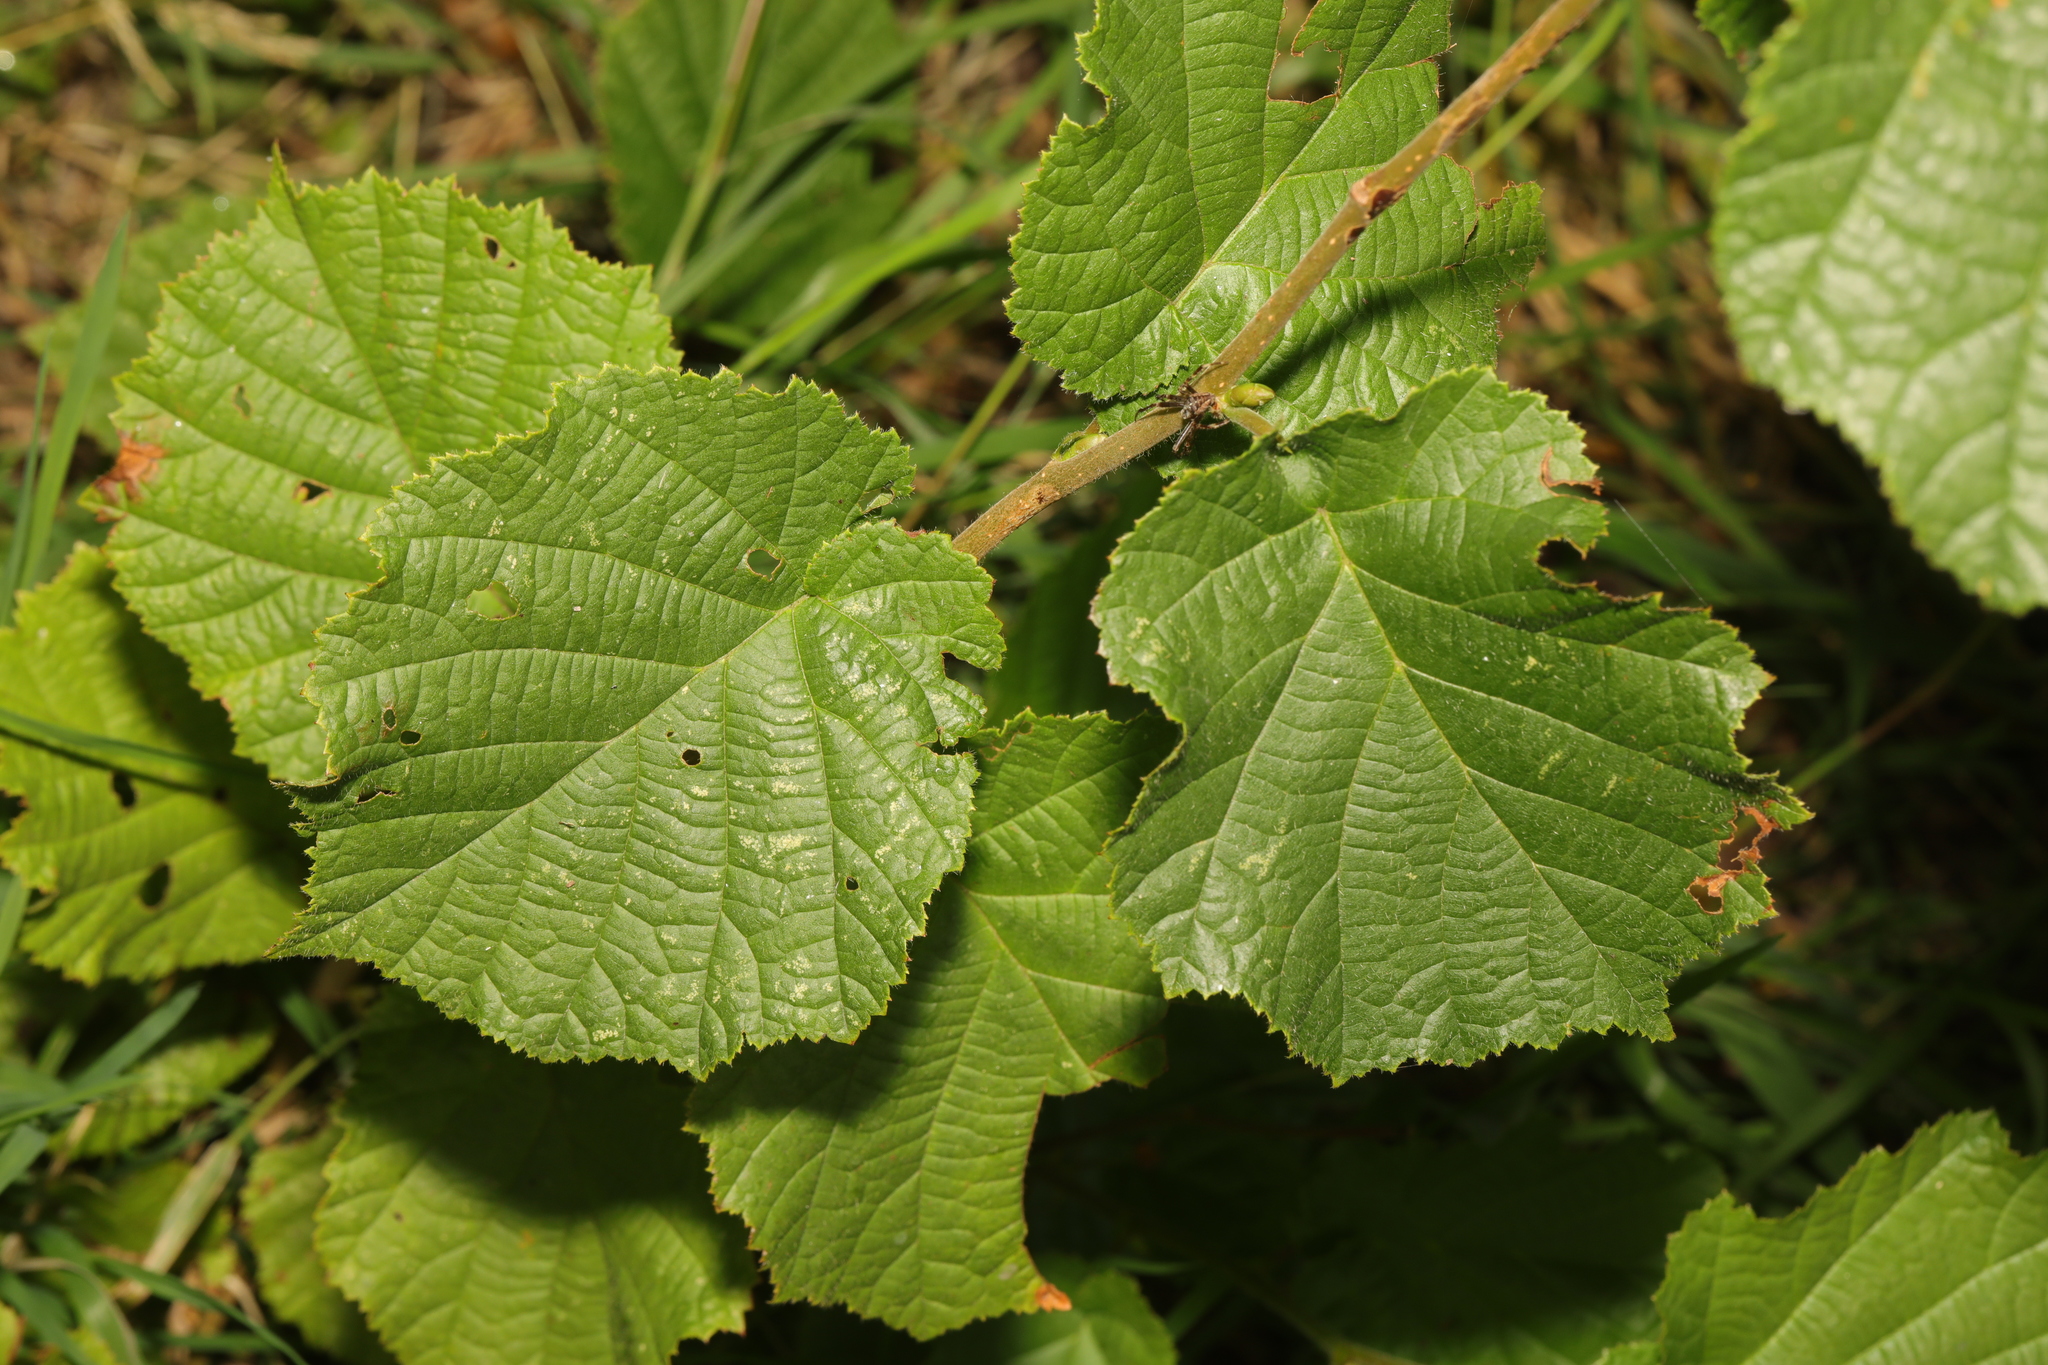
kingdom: Plantae
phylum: Tracheophyta
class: Magnoliopsida
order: Fagales
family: Betulaceae
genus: Corylus
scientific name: Corylus avellana
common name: European hazel
